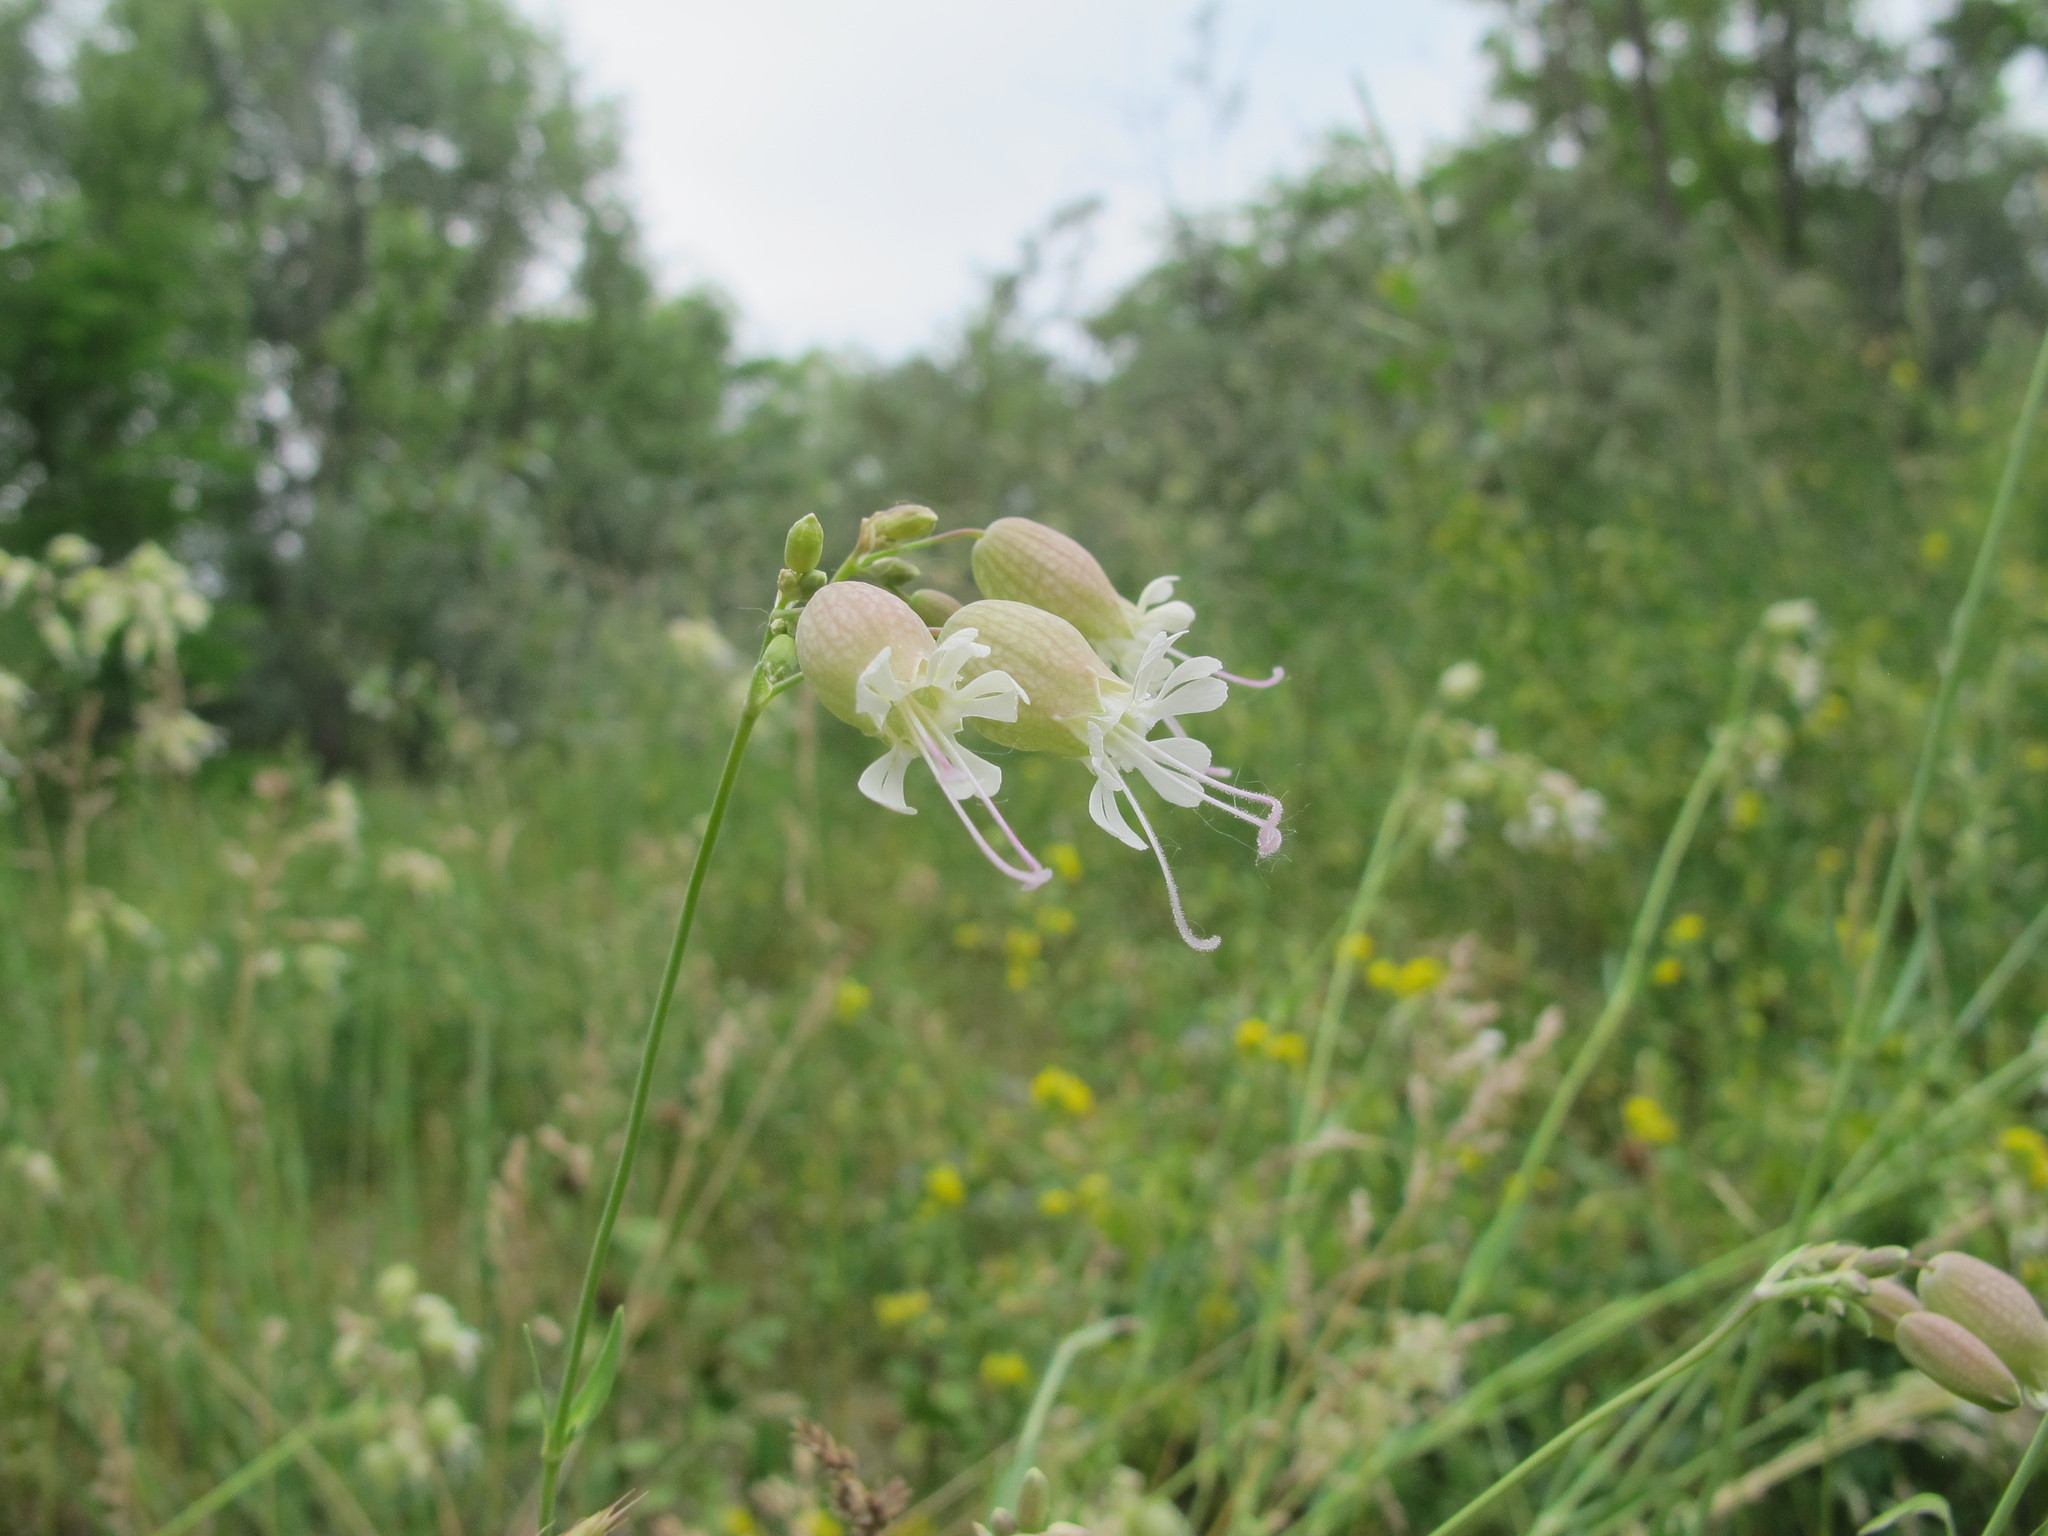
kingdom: Plantae
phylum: Tracheophyta
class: Magnoliopsida
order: Caryophyllales
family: Caryophyllaceae
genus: Silene
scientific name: Silene vulgaris
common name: Bladder campion
